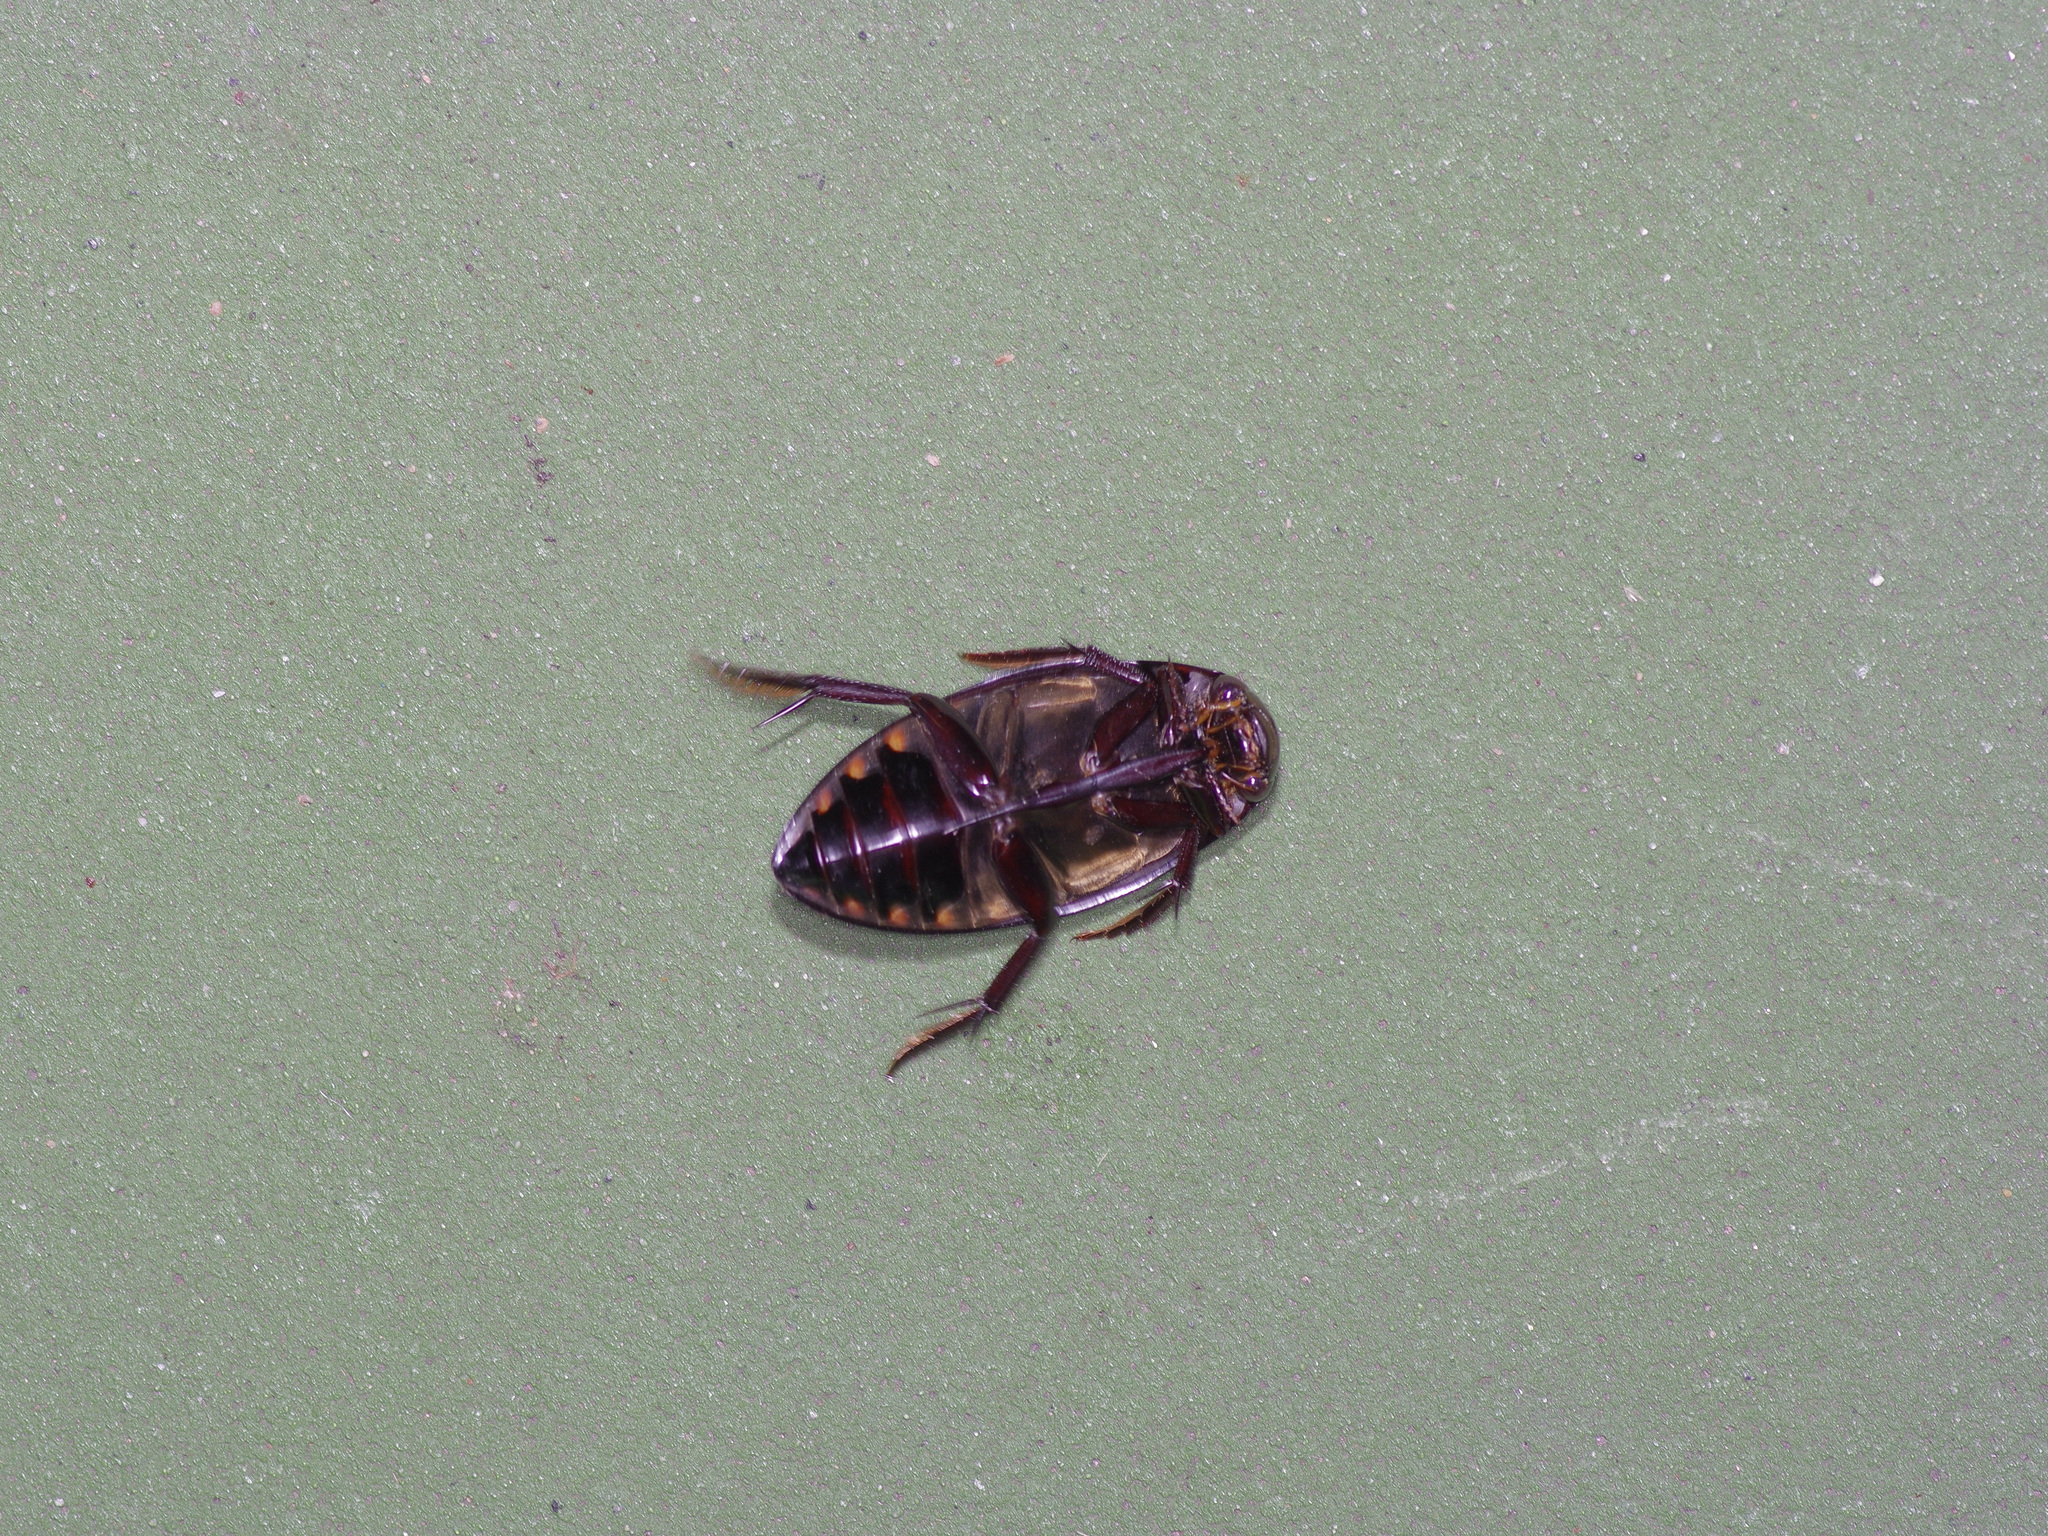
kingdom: Animalia
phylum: Arthropoda
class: Insecta
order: Coleoptera
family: Hydrophilidae
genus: Hydrophilus
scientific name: Hydrophilus triangularis
